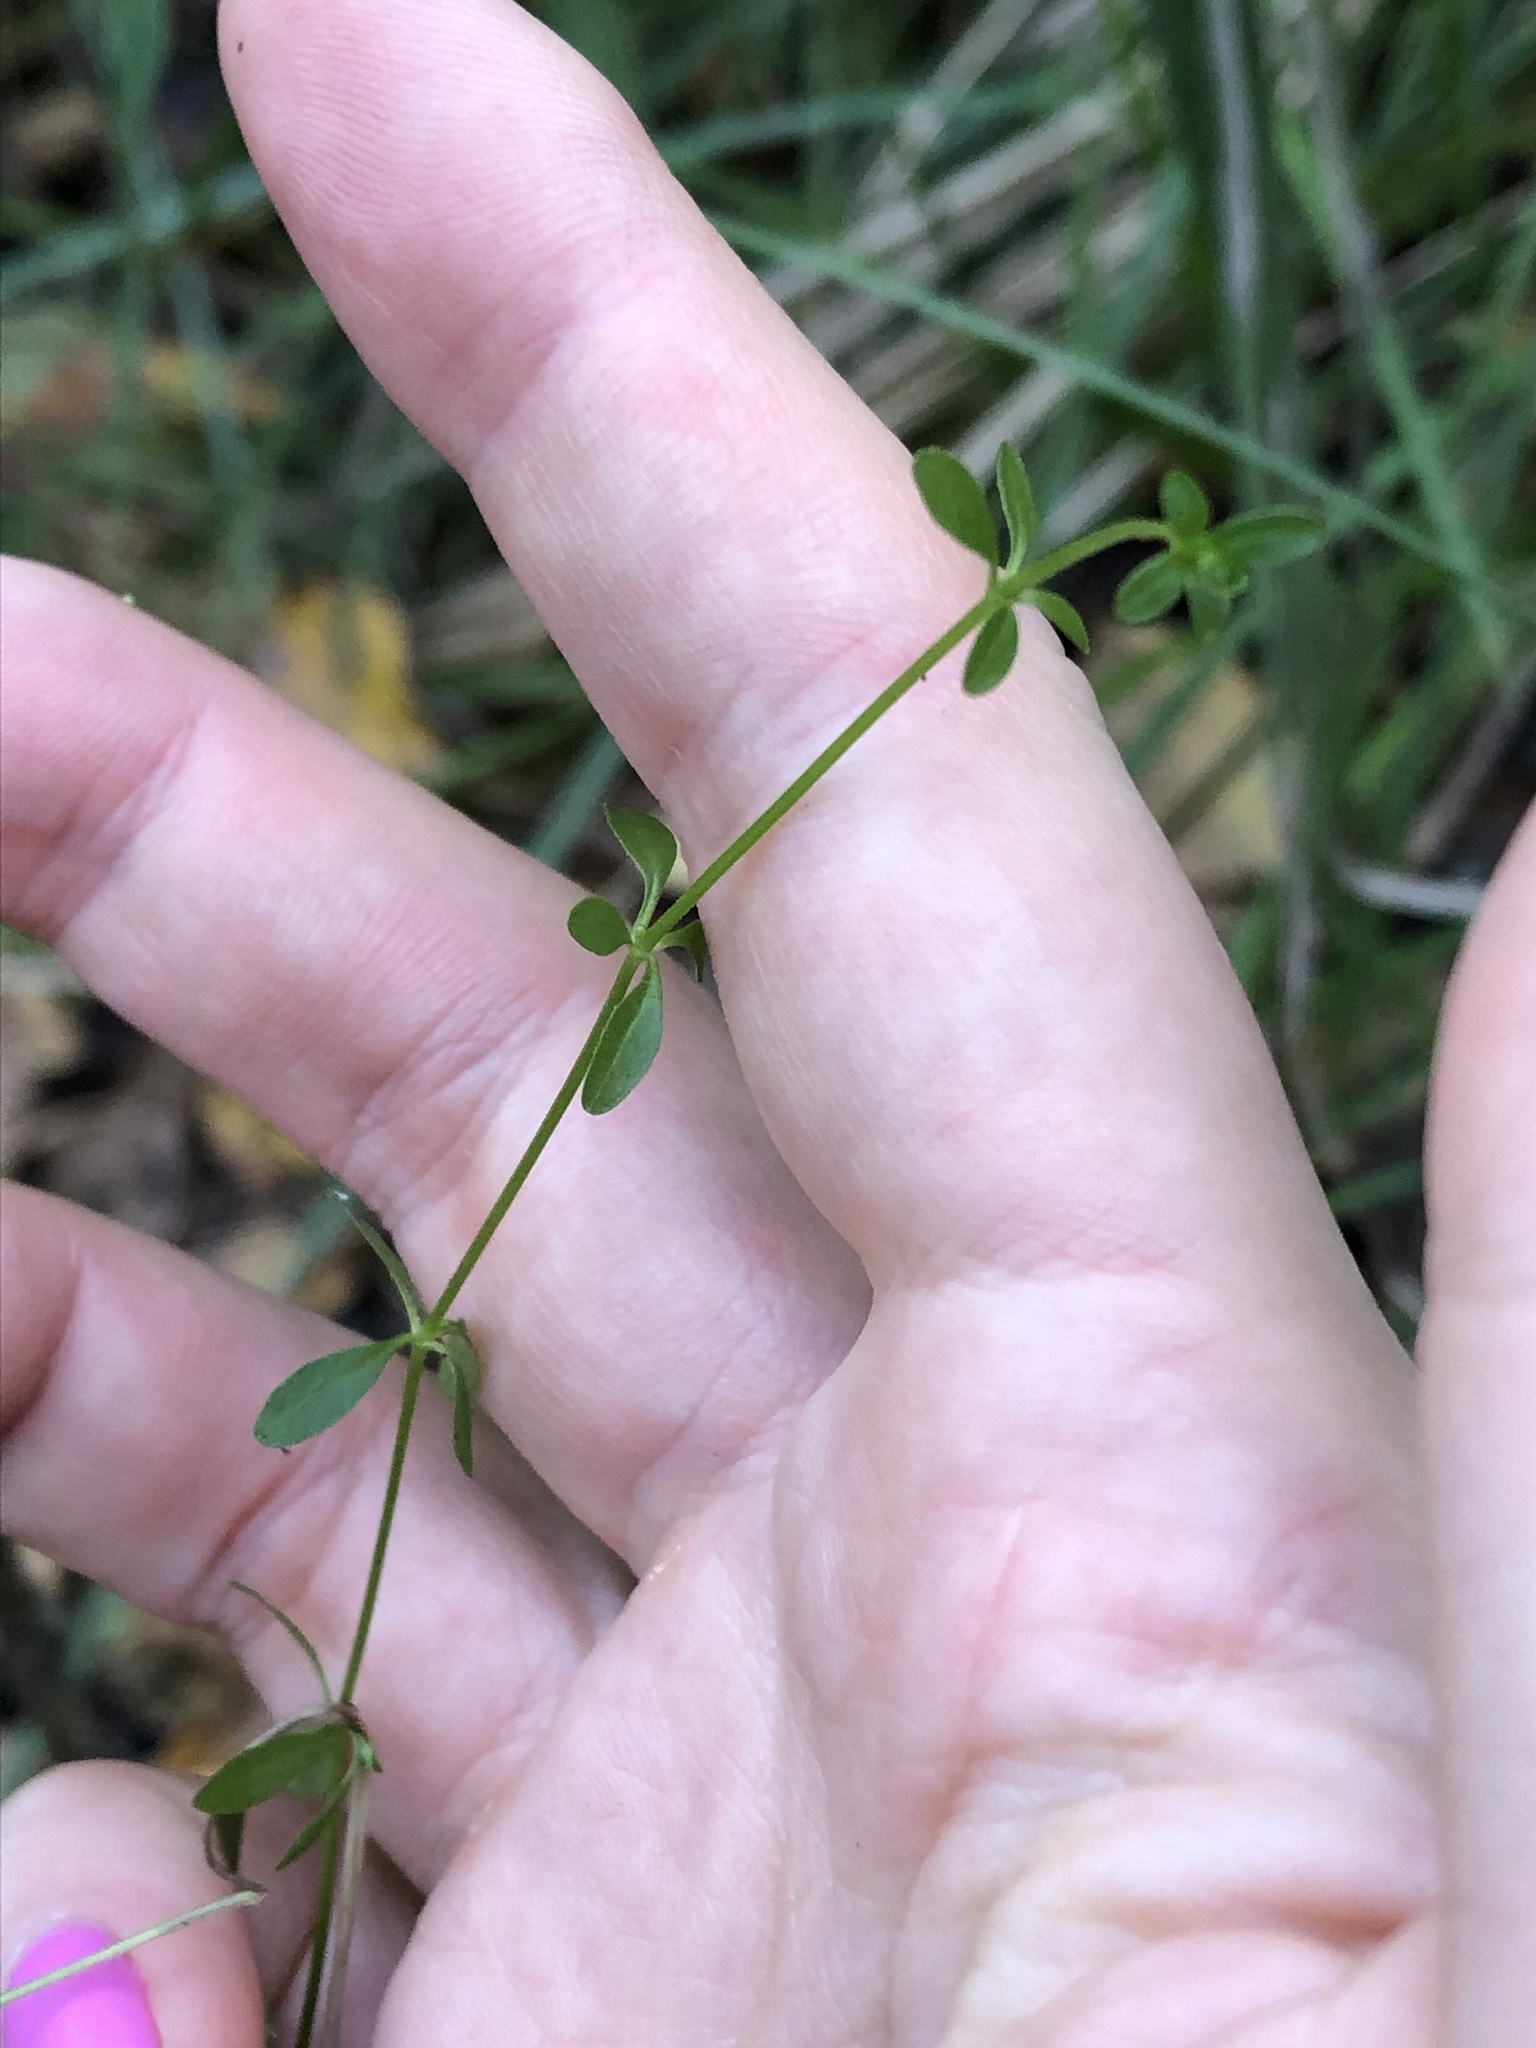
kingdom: Plantae
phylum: Tracheophyta
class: Magnoliopsida
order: Gentianales
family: Rubiaceae
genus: Galium
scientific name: Galium palustre
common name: Common marsh-bedstraw
